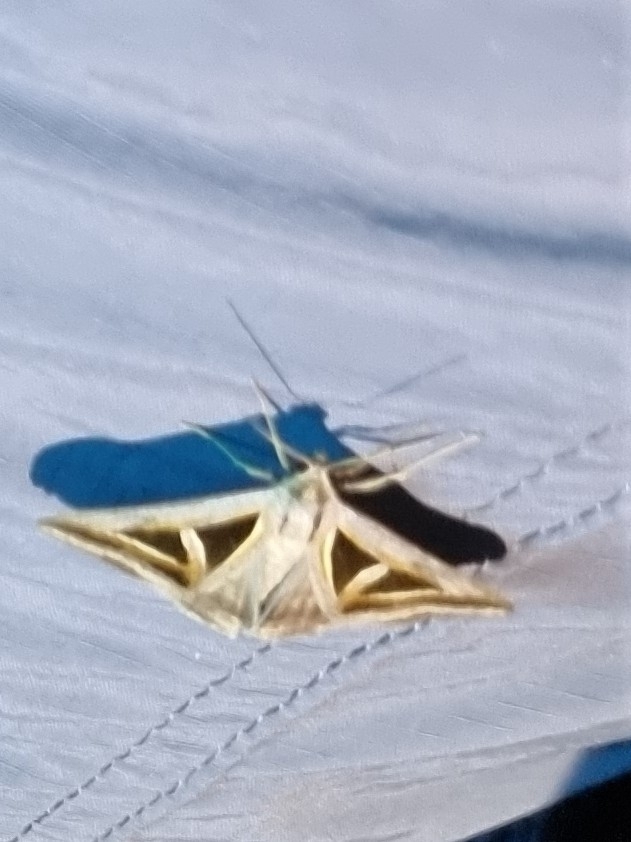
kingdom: Animalia
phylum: Arthropoda
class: Insecta
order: Lepidoptera
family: Erebidae
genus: Trigonodes
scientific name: Trigonodes hyppasia
